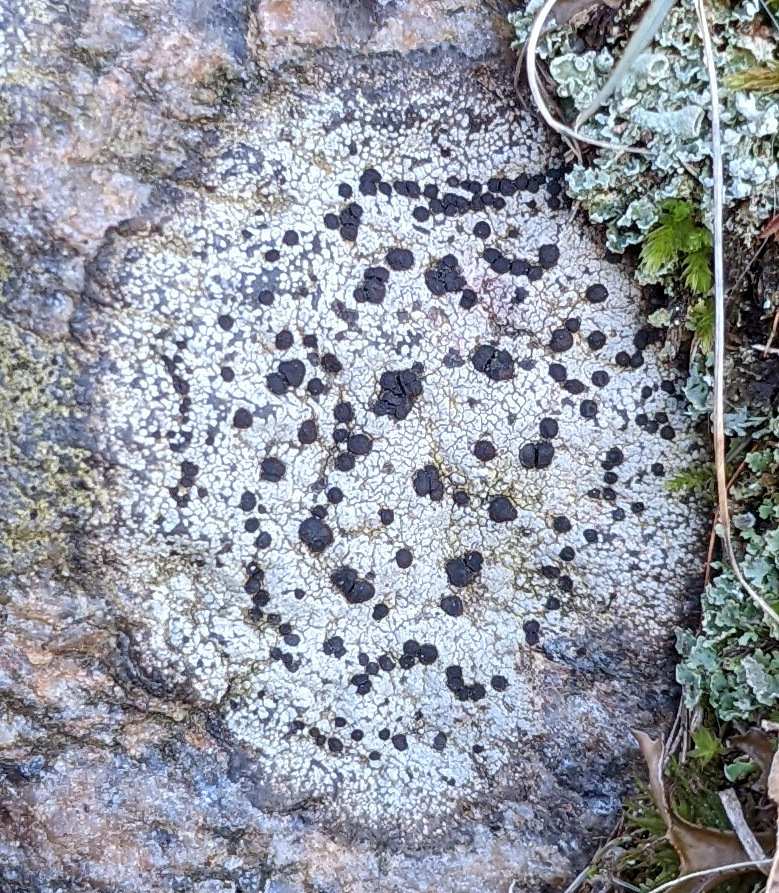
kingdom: Fungi
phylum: Ascomycota
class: Lecanoromycetes
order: Lecideales
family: Lecideaceae
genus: Porpidia
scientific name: Porpidia crustulata
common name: Concentric boulder lichen
